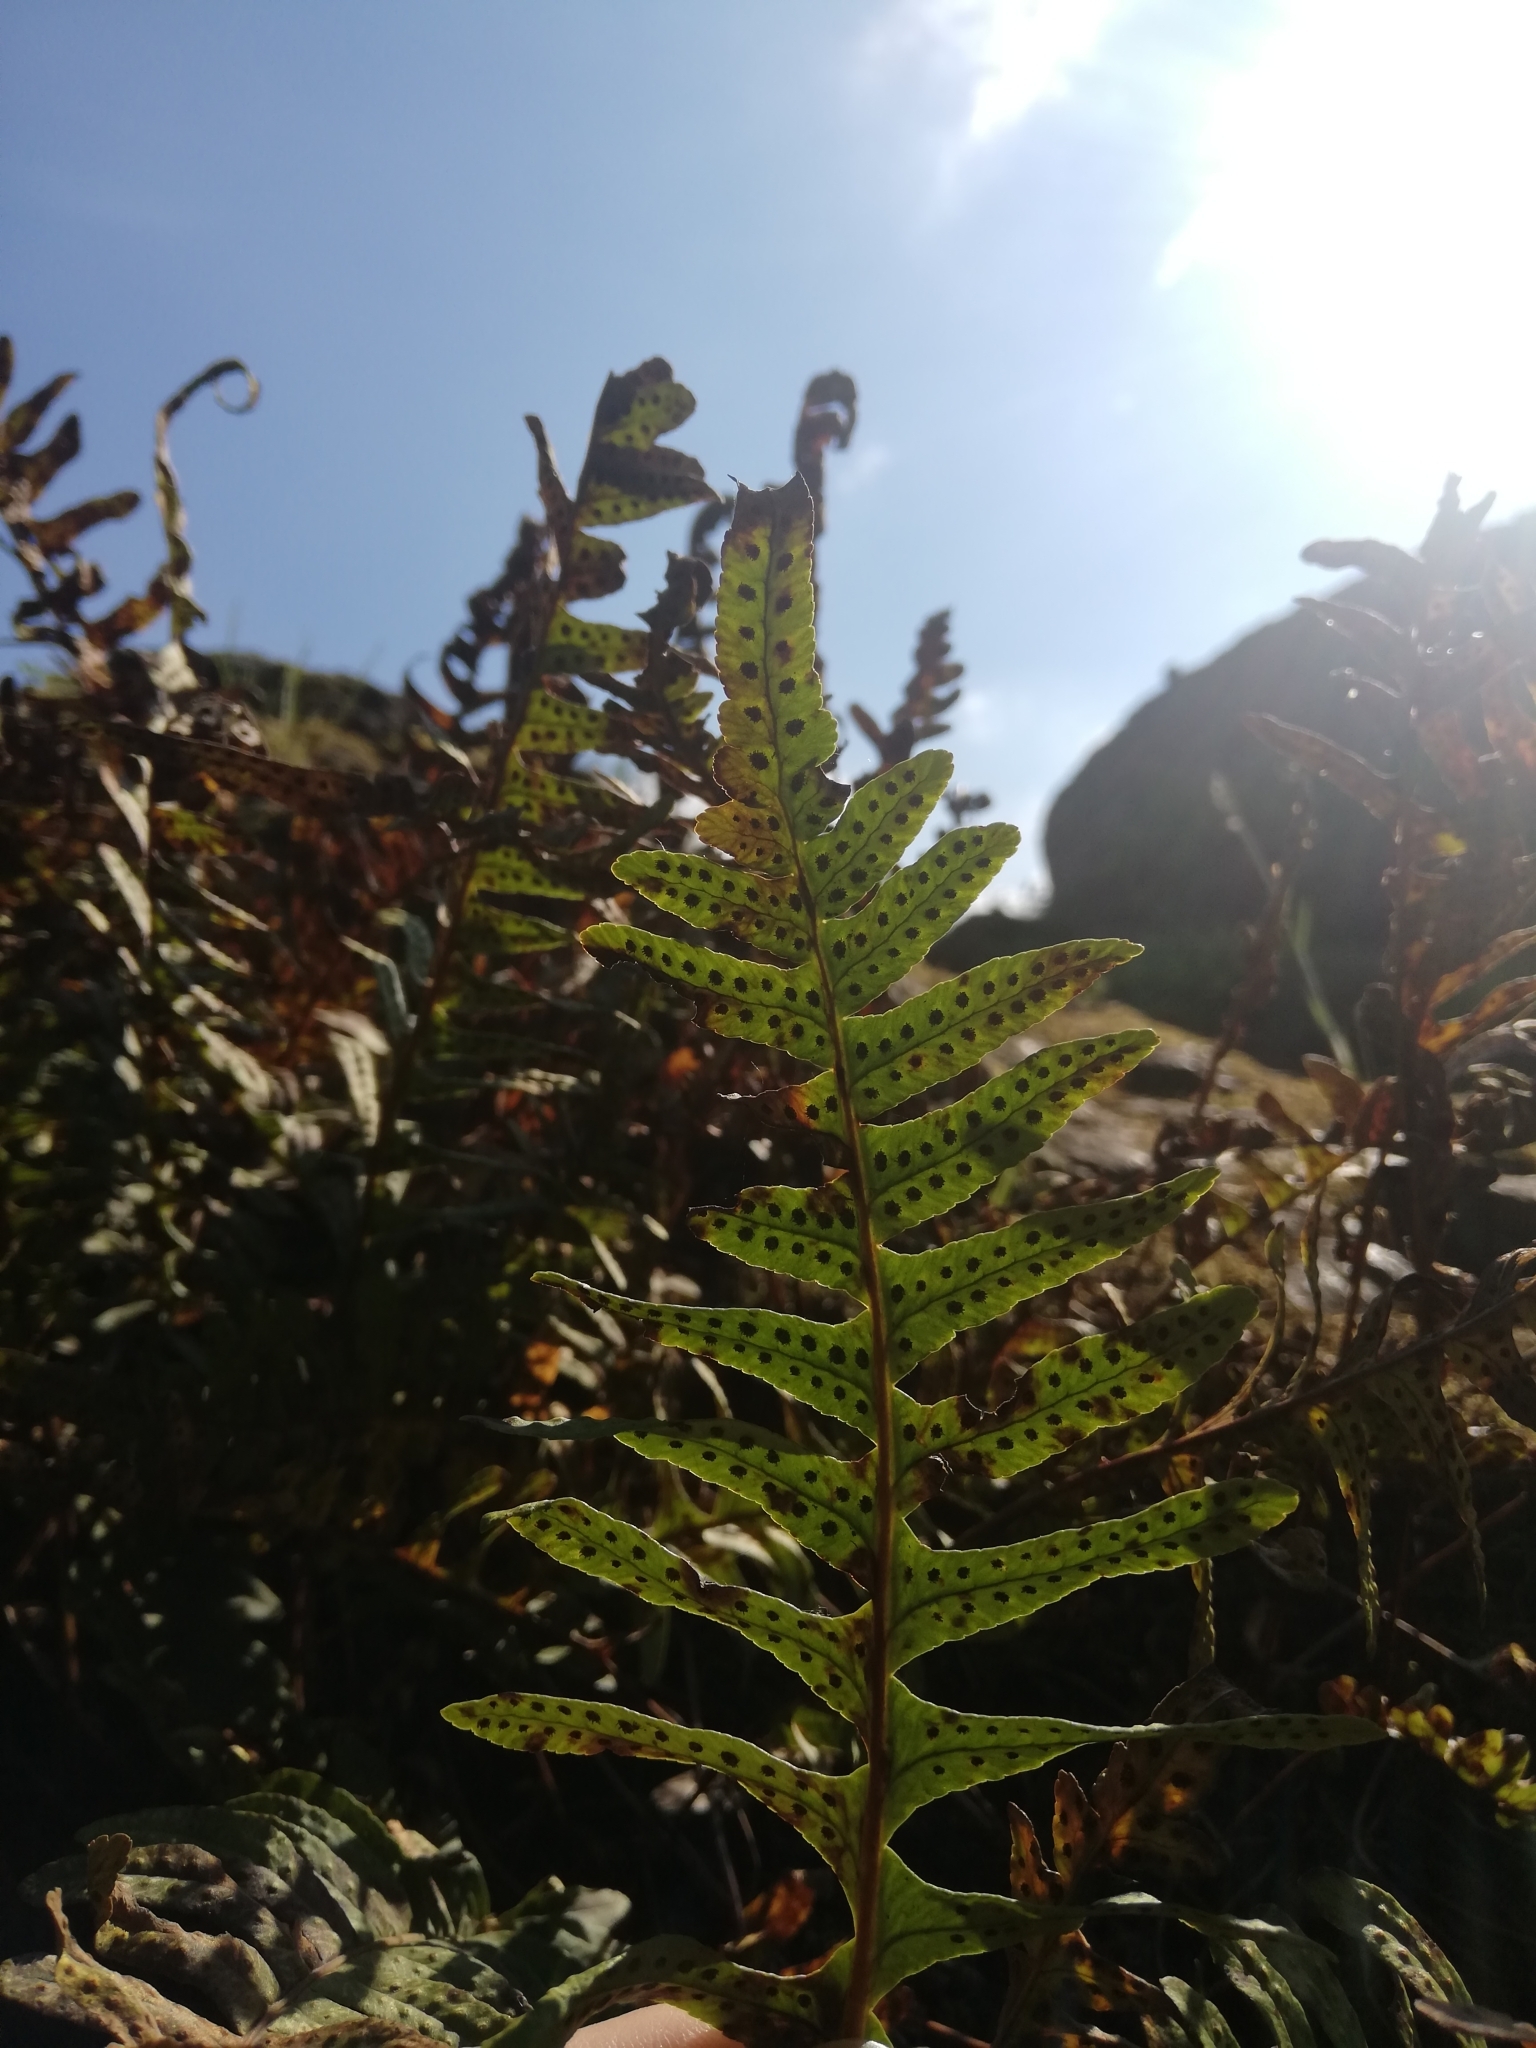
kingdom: Plantae
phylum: Tracheophyta
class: Polypodiopsida
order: Polypodiales
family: Polypodiaceae
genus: Polypodium
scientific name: Polypodium vulgare
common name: Common polypody
